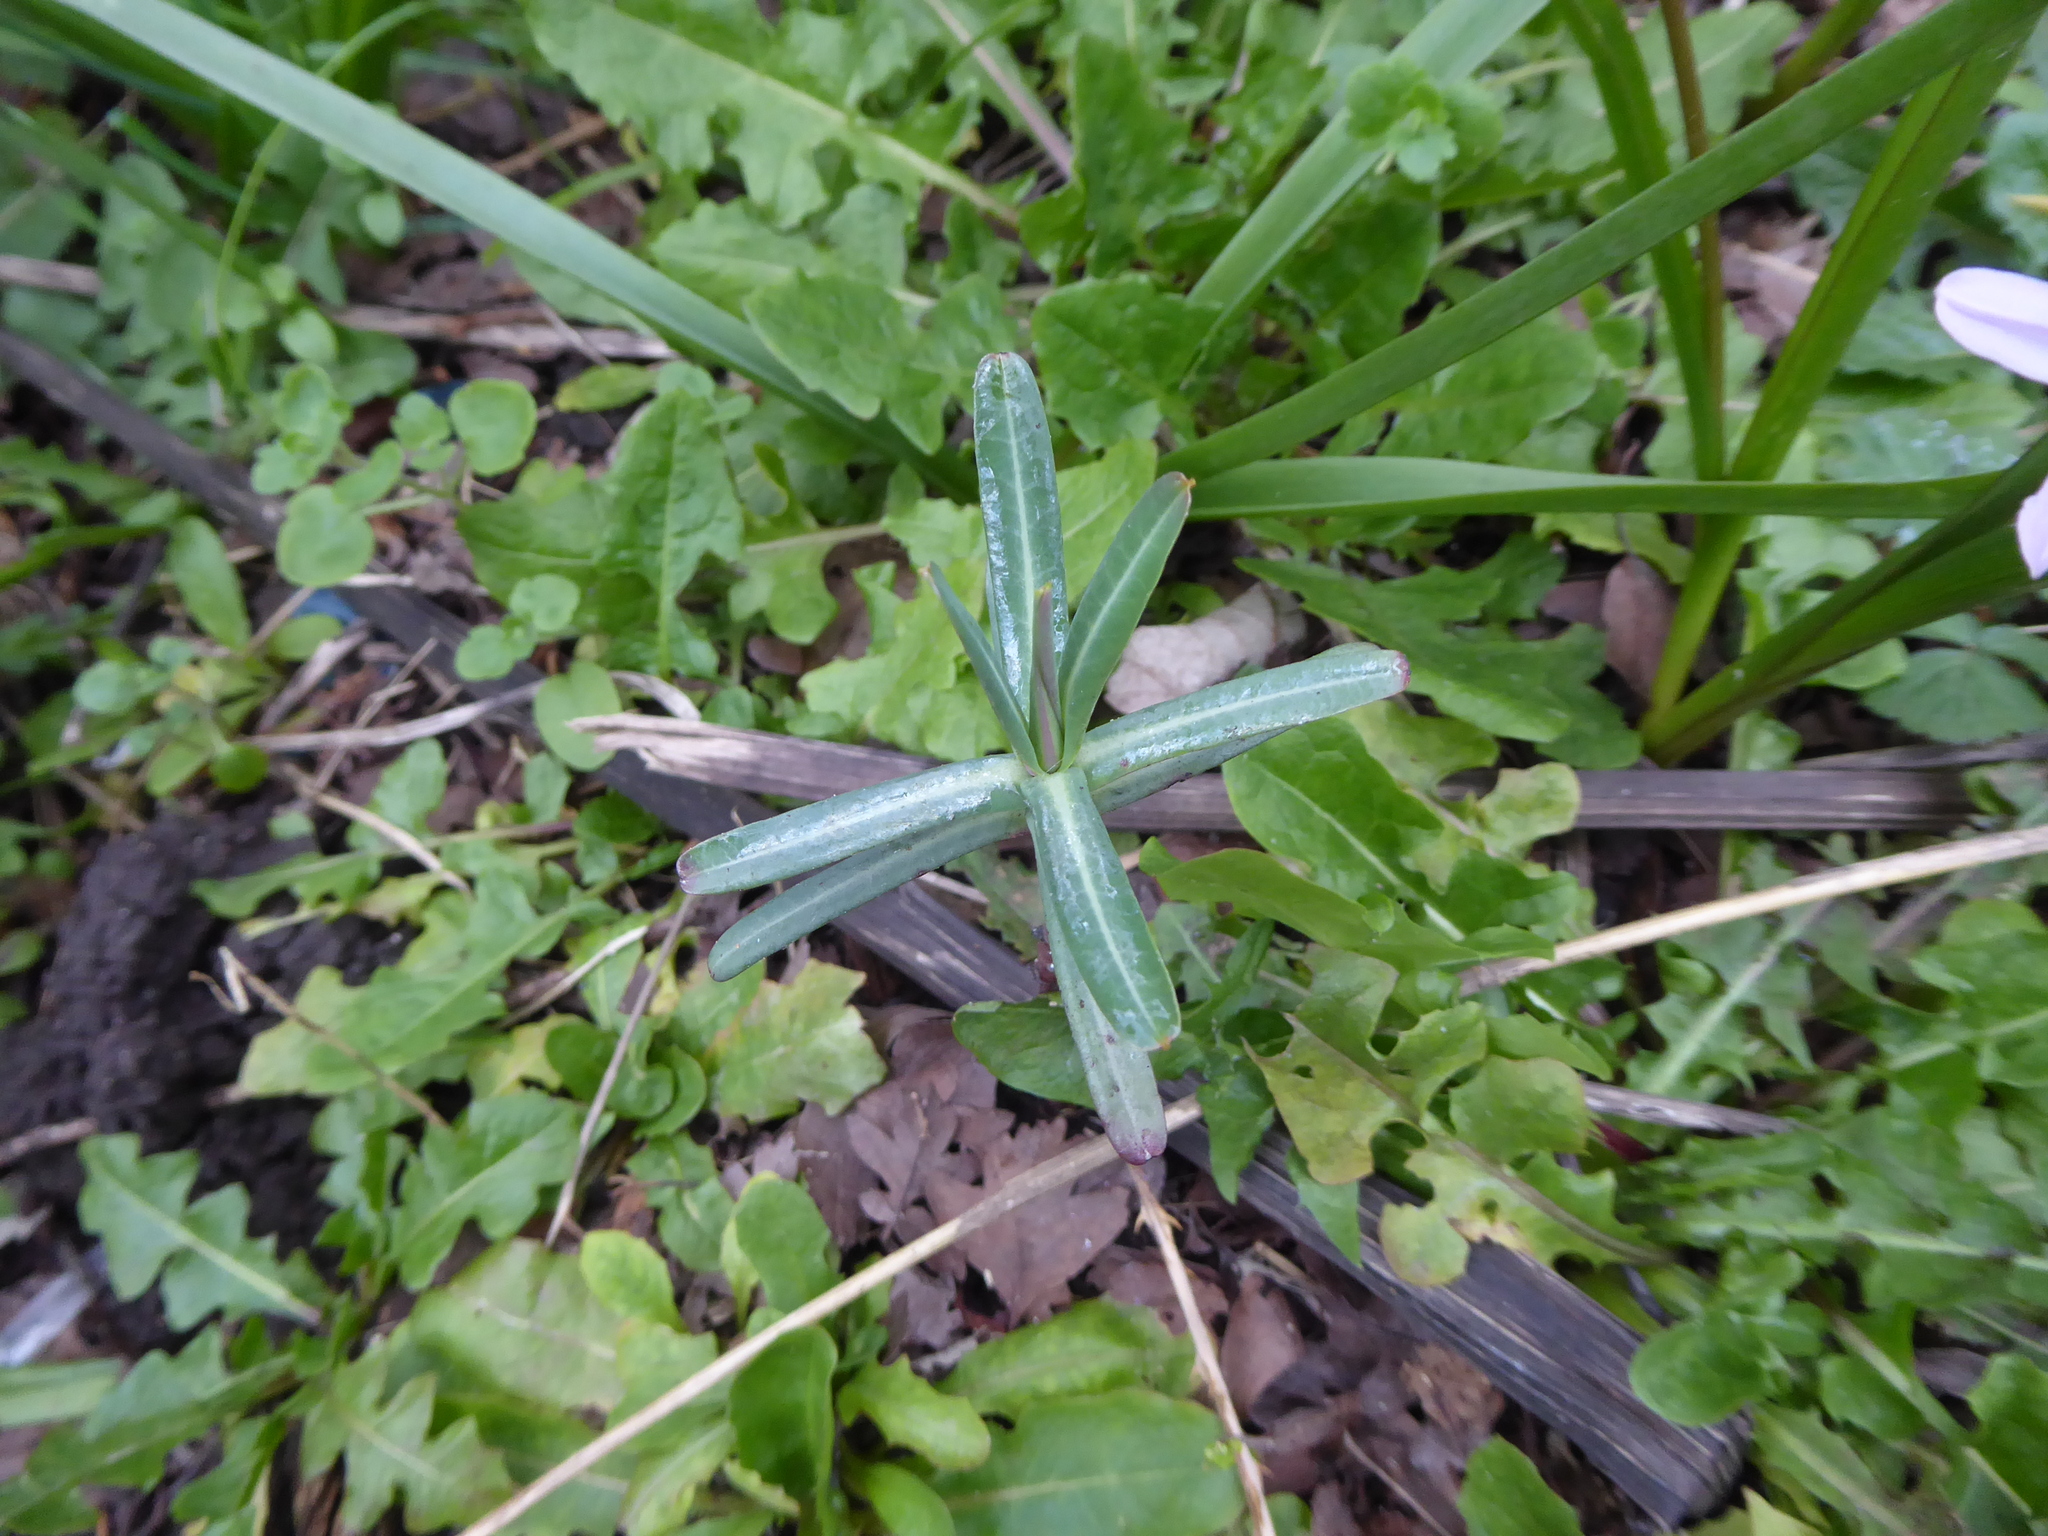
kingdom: Plantae
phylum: Tracheophyta
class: Magnoliopsida
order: Malpighiales
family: Euphorbiaceae
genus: Euphorbia
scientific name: Euphorbia lathyris
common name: Caper spurge
